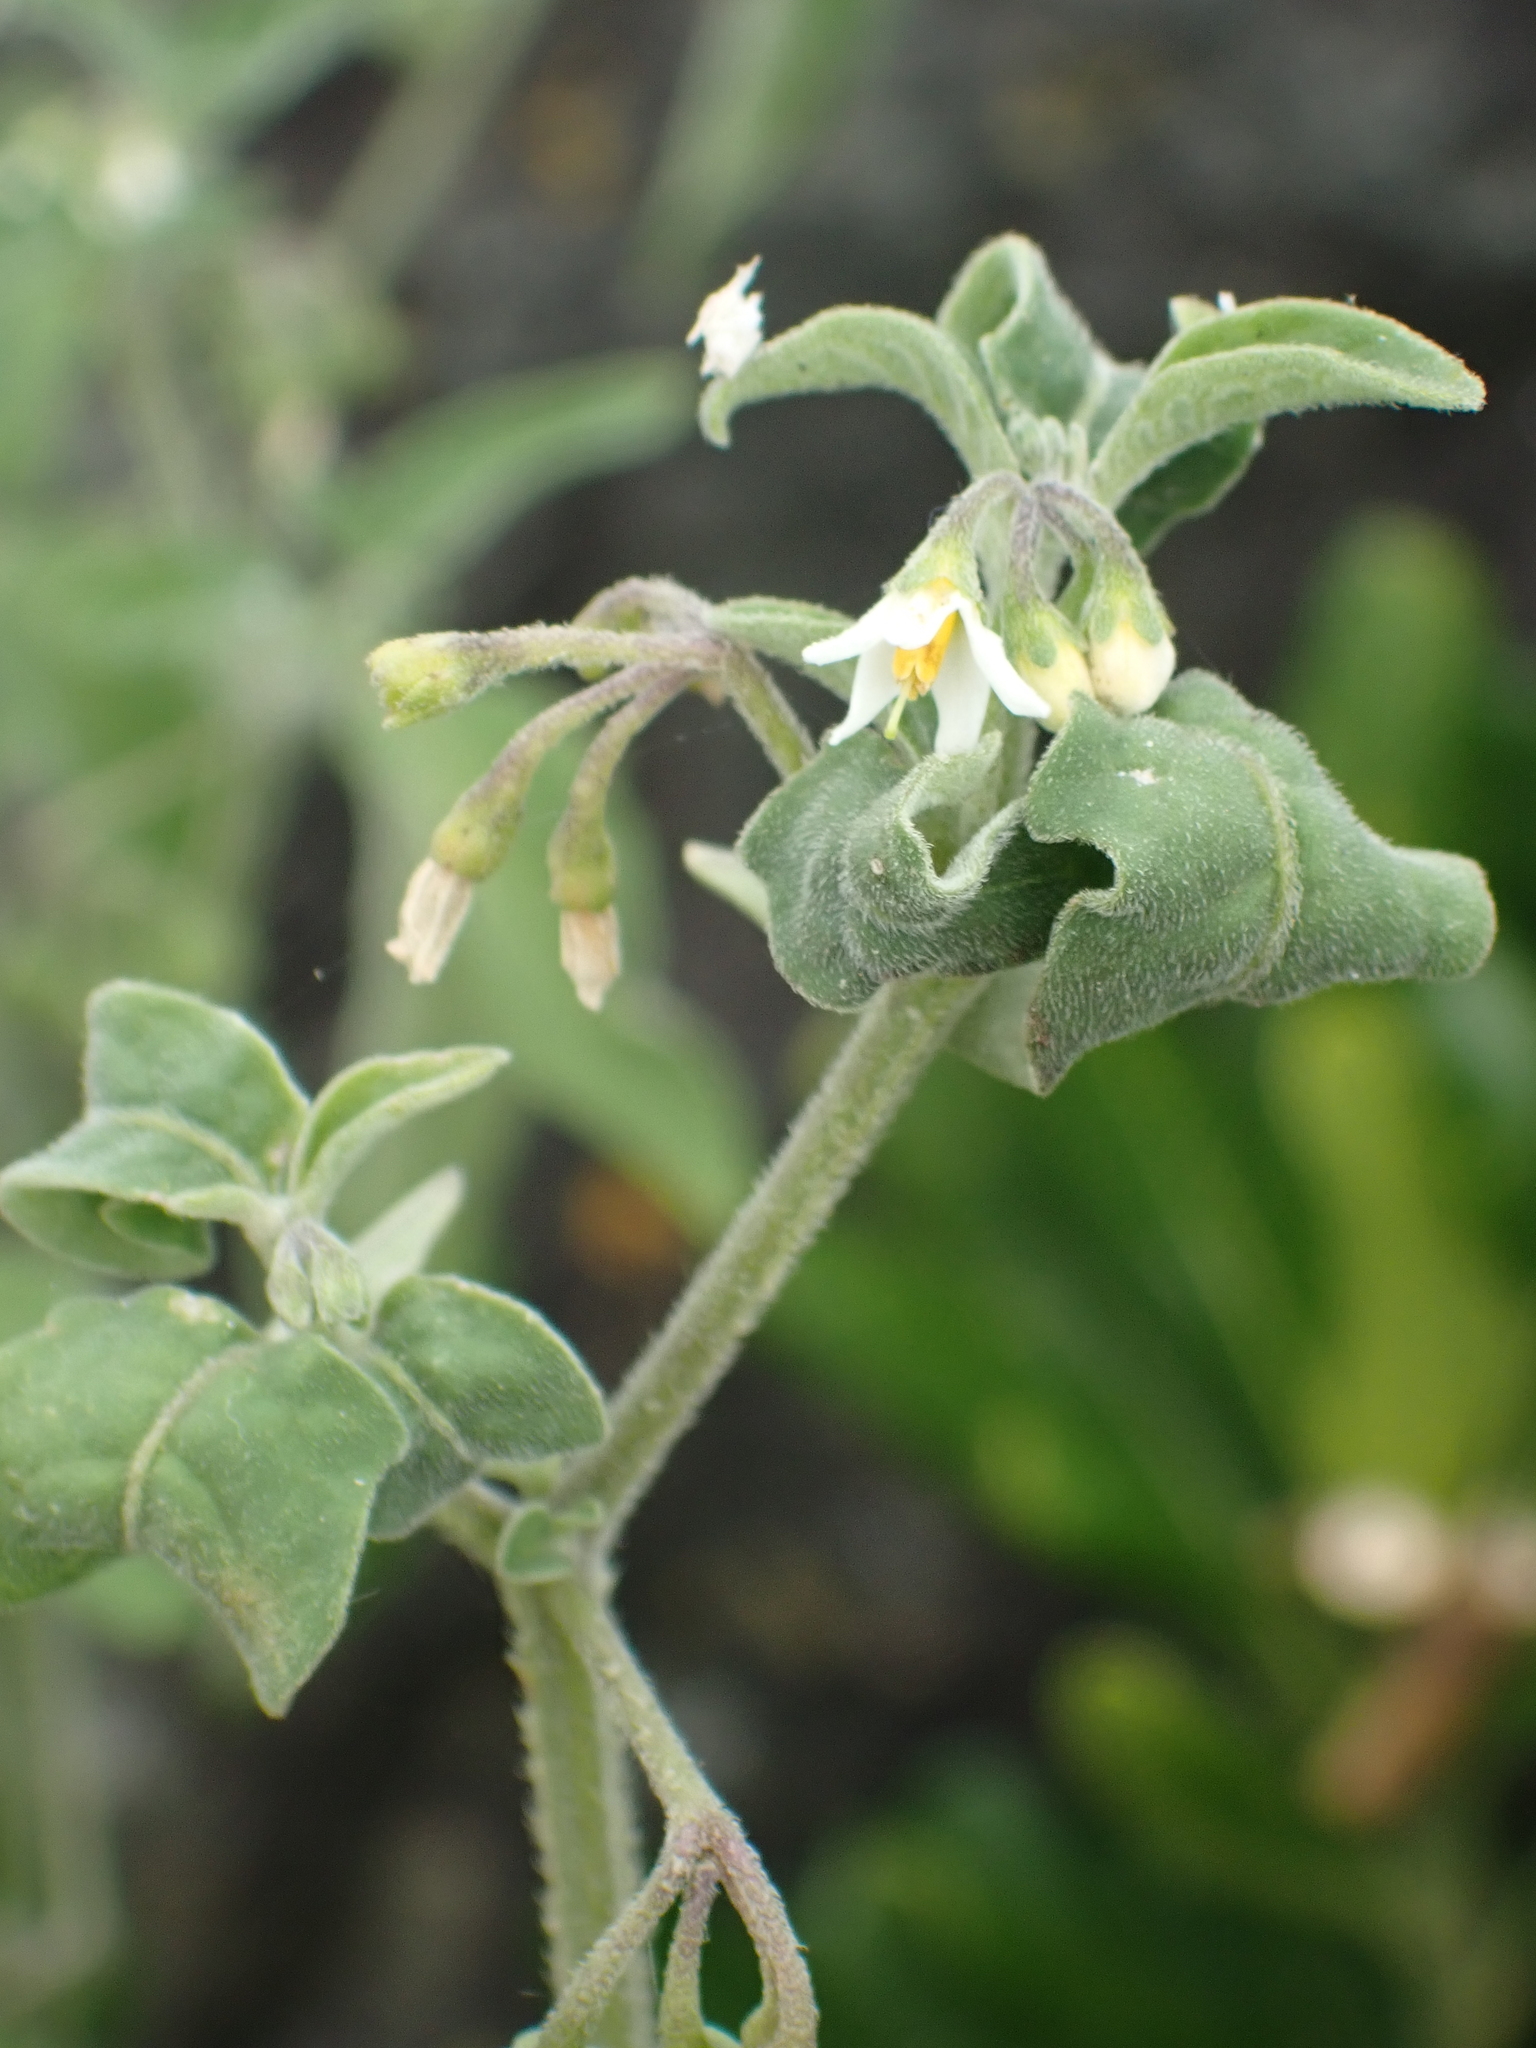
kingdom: Plantae
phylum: Tracheophyta
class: Magnoliopsida
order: Solanales
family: Solanaceae
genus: Solanum
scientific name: Solanum chenopodioides
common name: Tall nightshade
